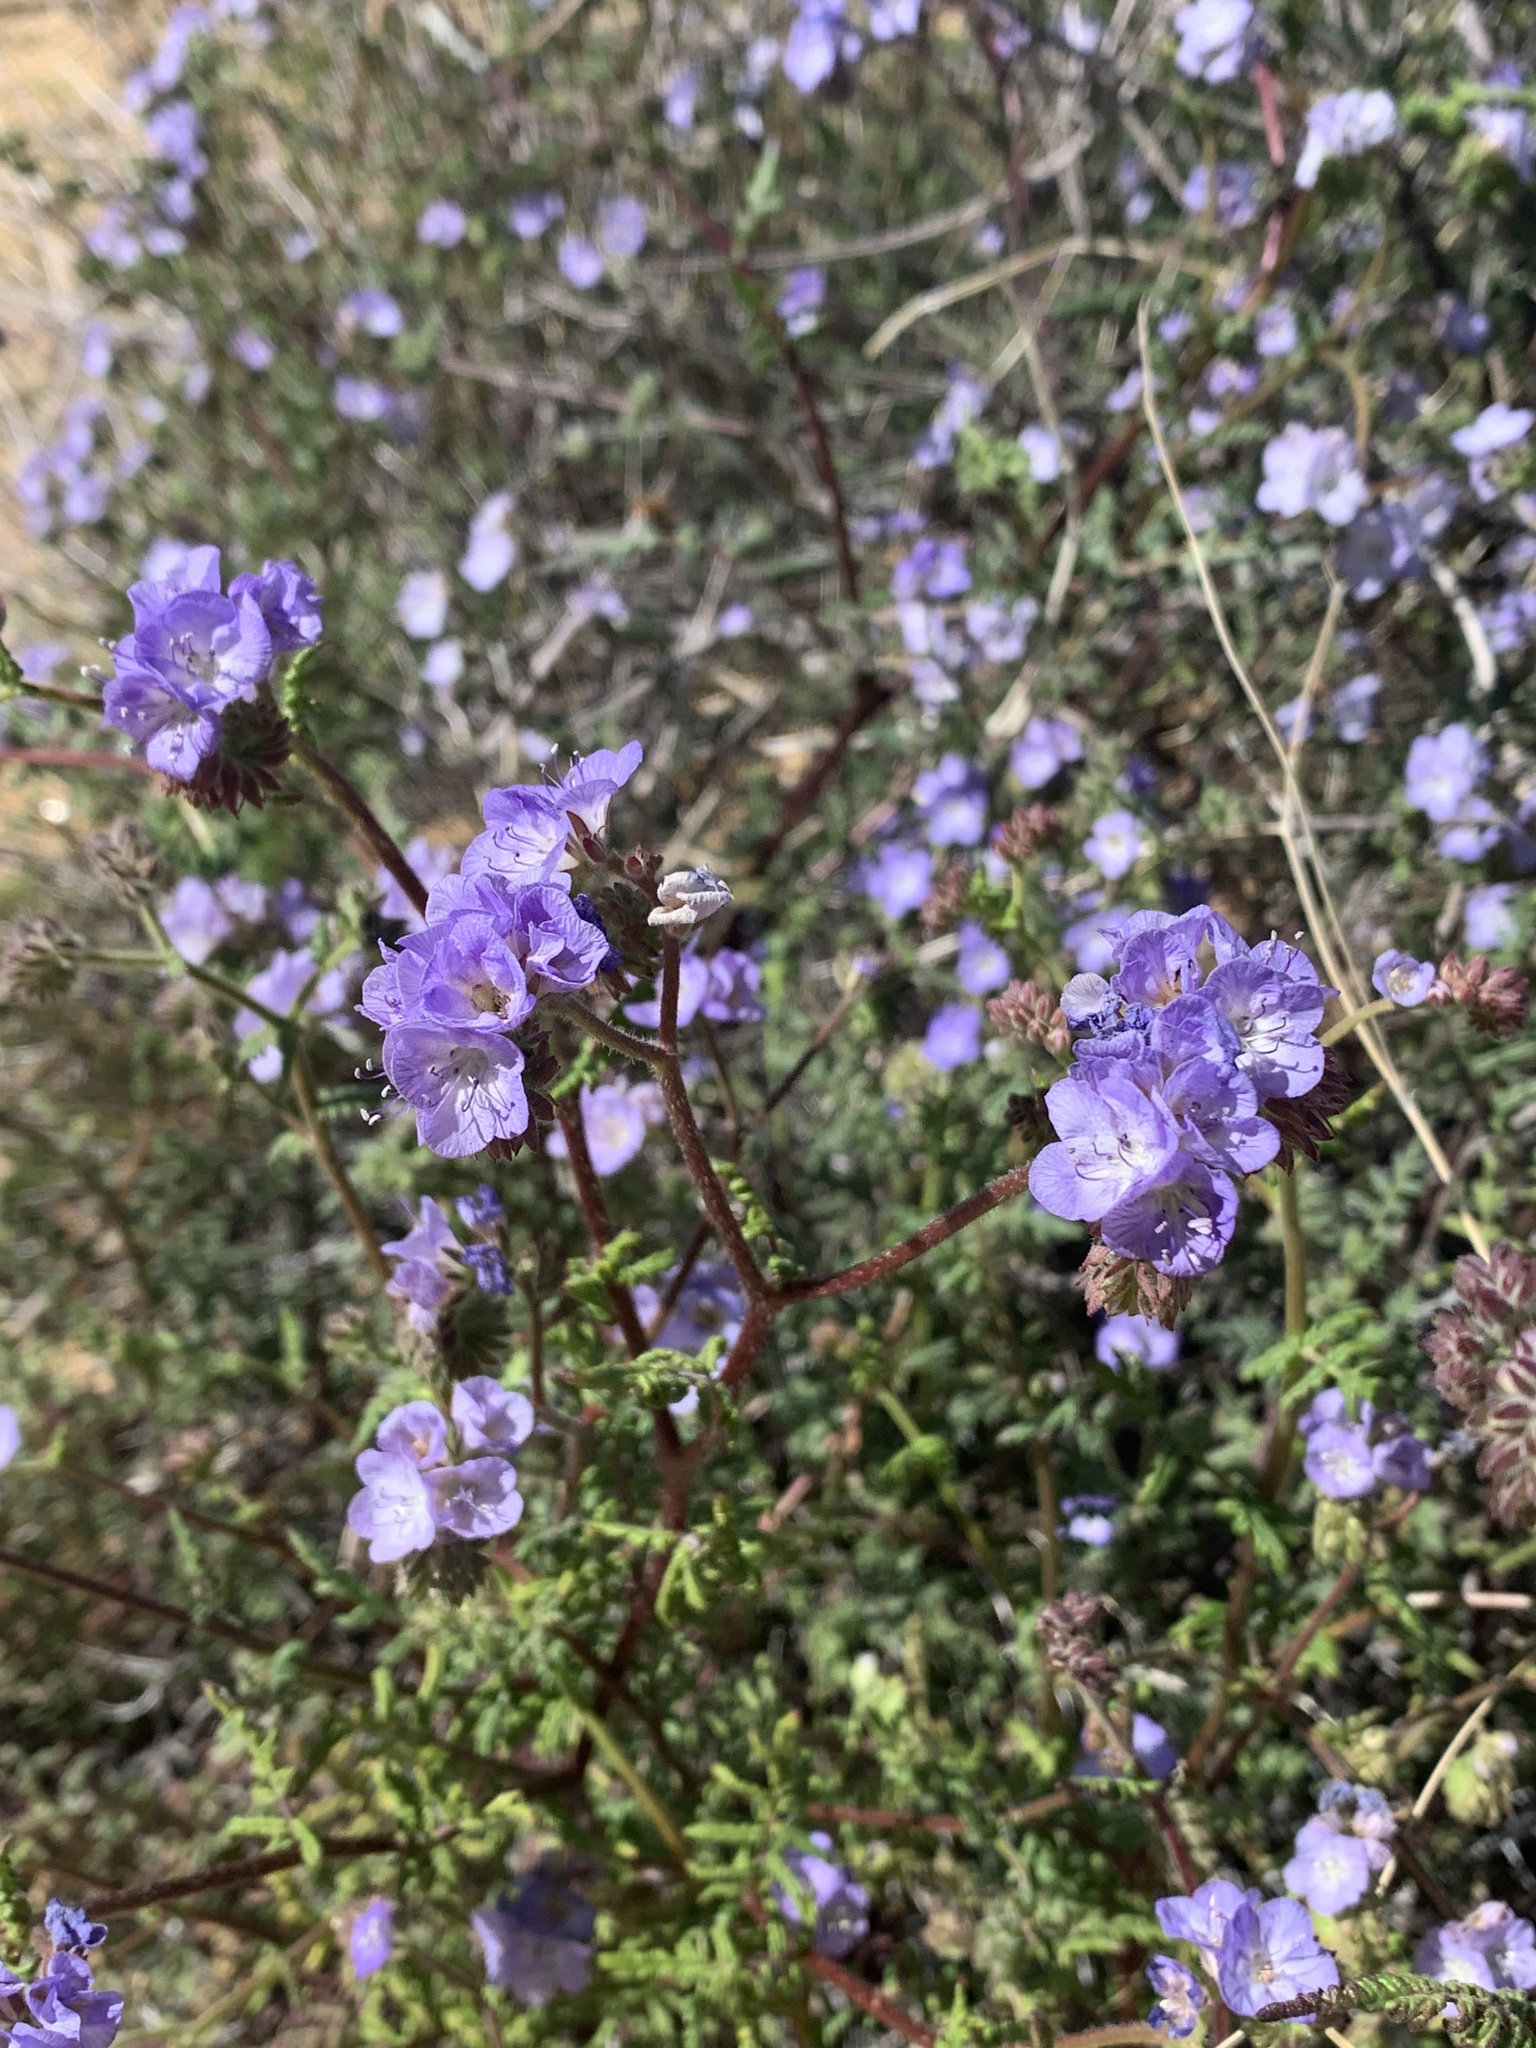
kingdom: Plantae
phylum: Tracheophyta
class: Magnoliopsida
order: Boraginales
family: Hydrophyllaceae
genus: Phacelia
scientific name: Phacelia distans
